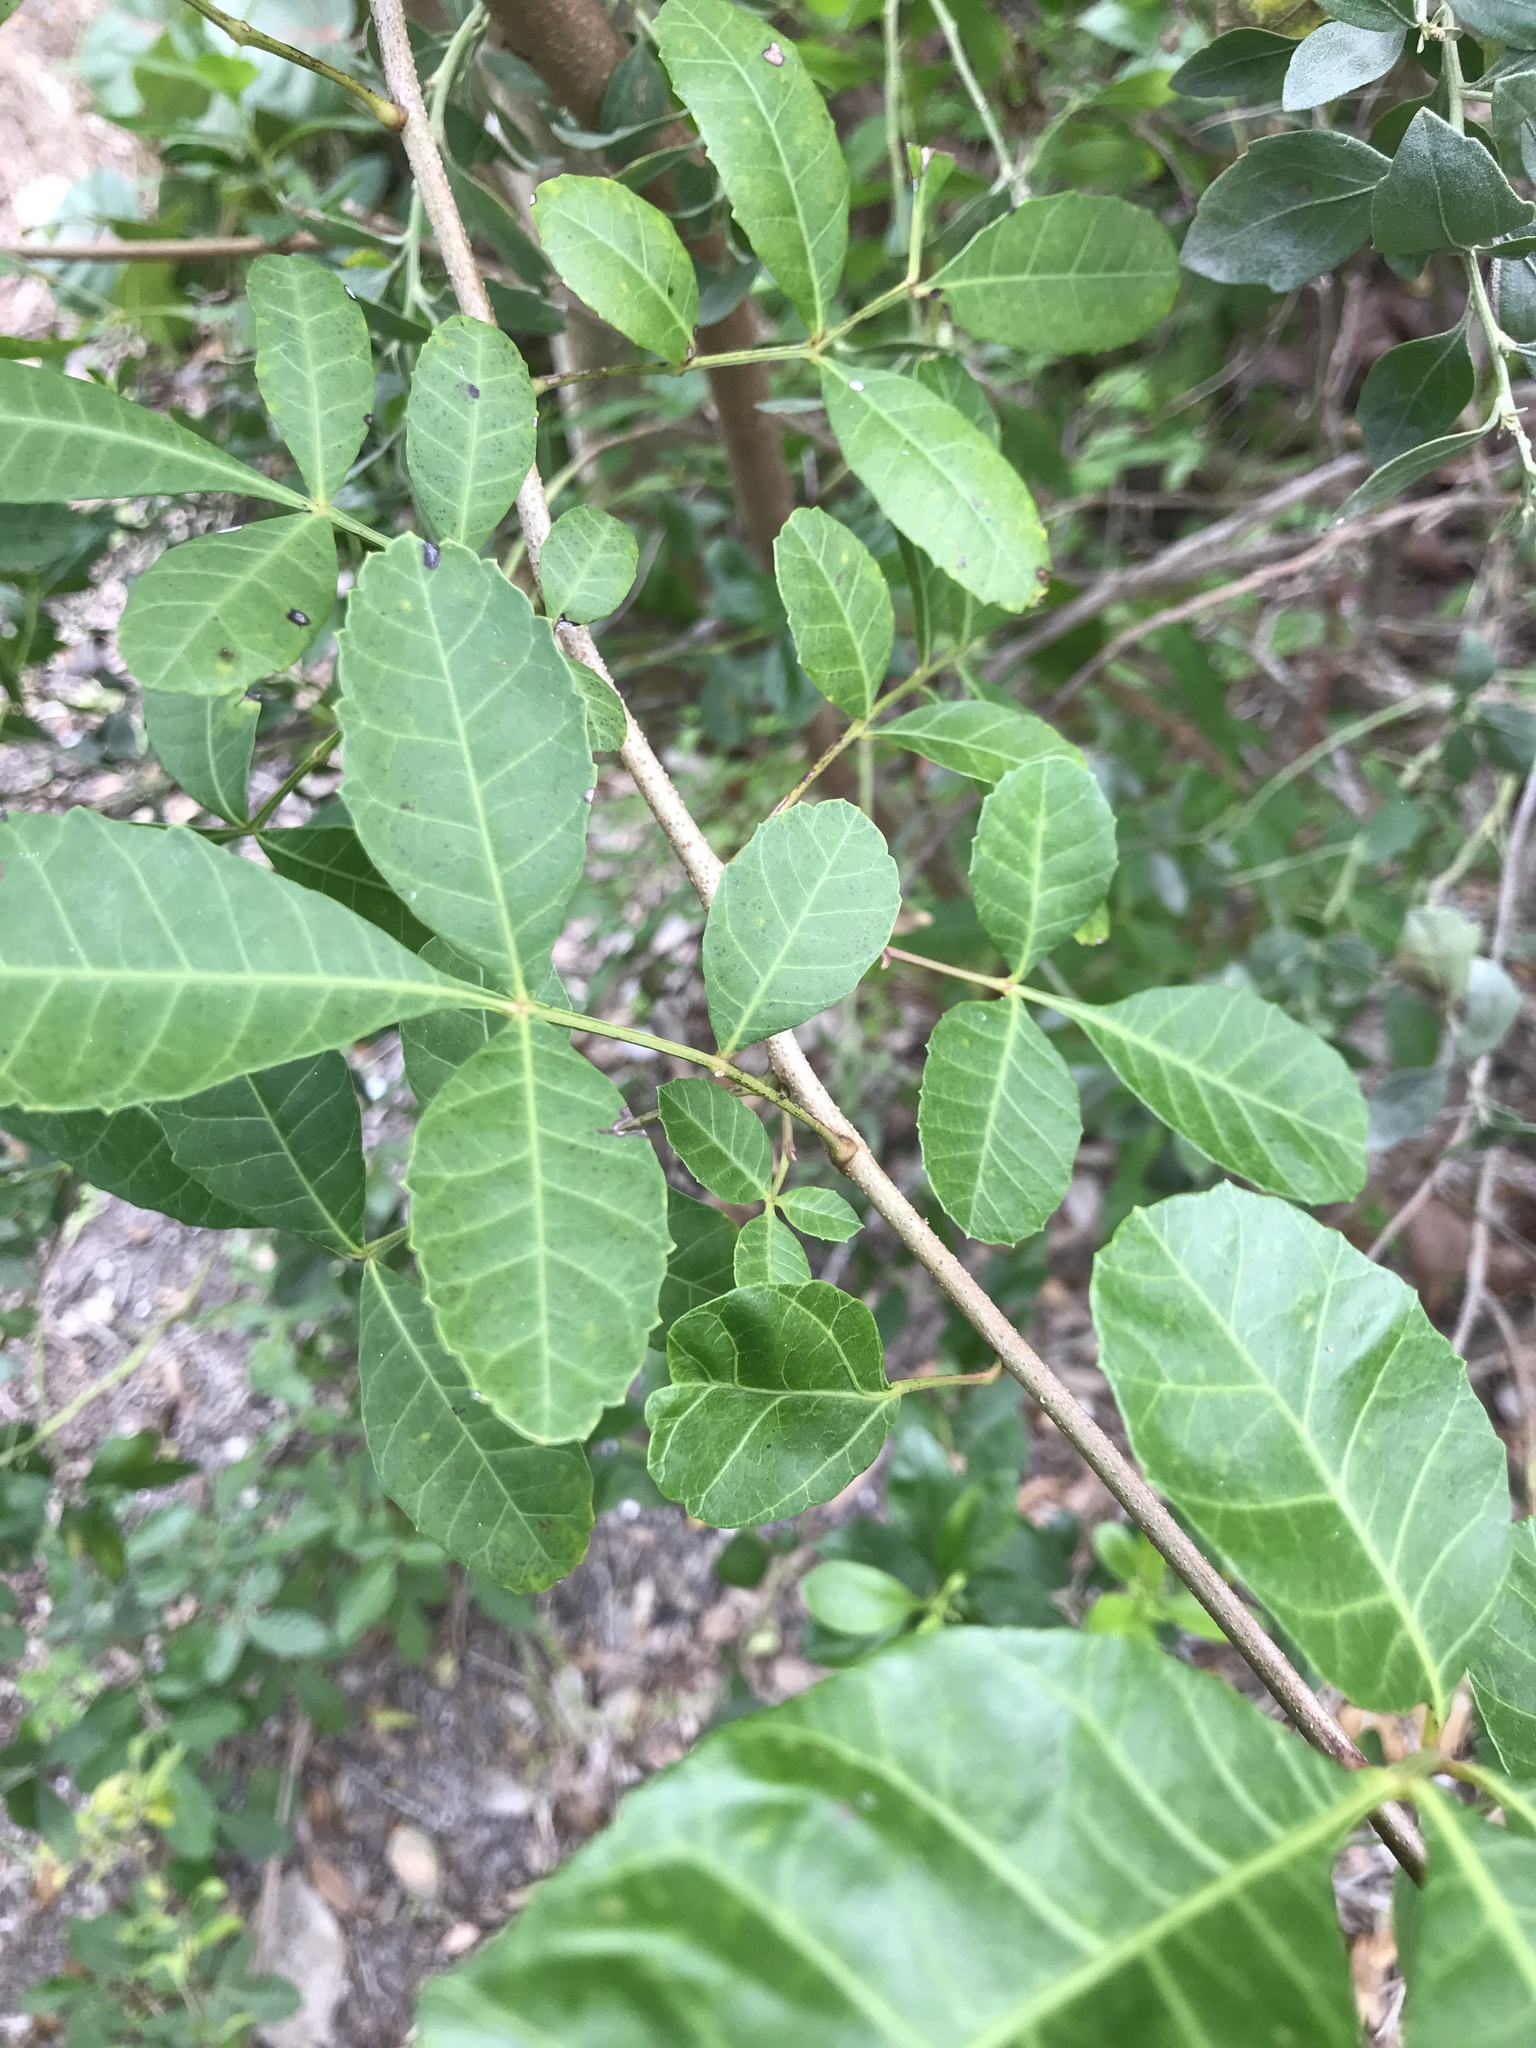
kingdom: Plantae
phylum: Tracheophyta
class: Magnoliopsida
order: Sapindales
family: Anacardiaceae
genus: Schinus
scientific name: Schinus terebinthifolia
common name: Brazilian peppertree
